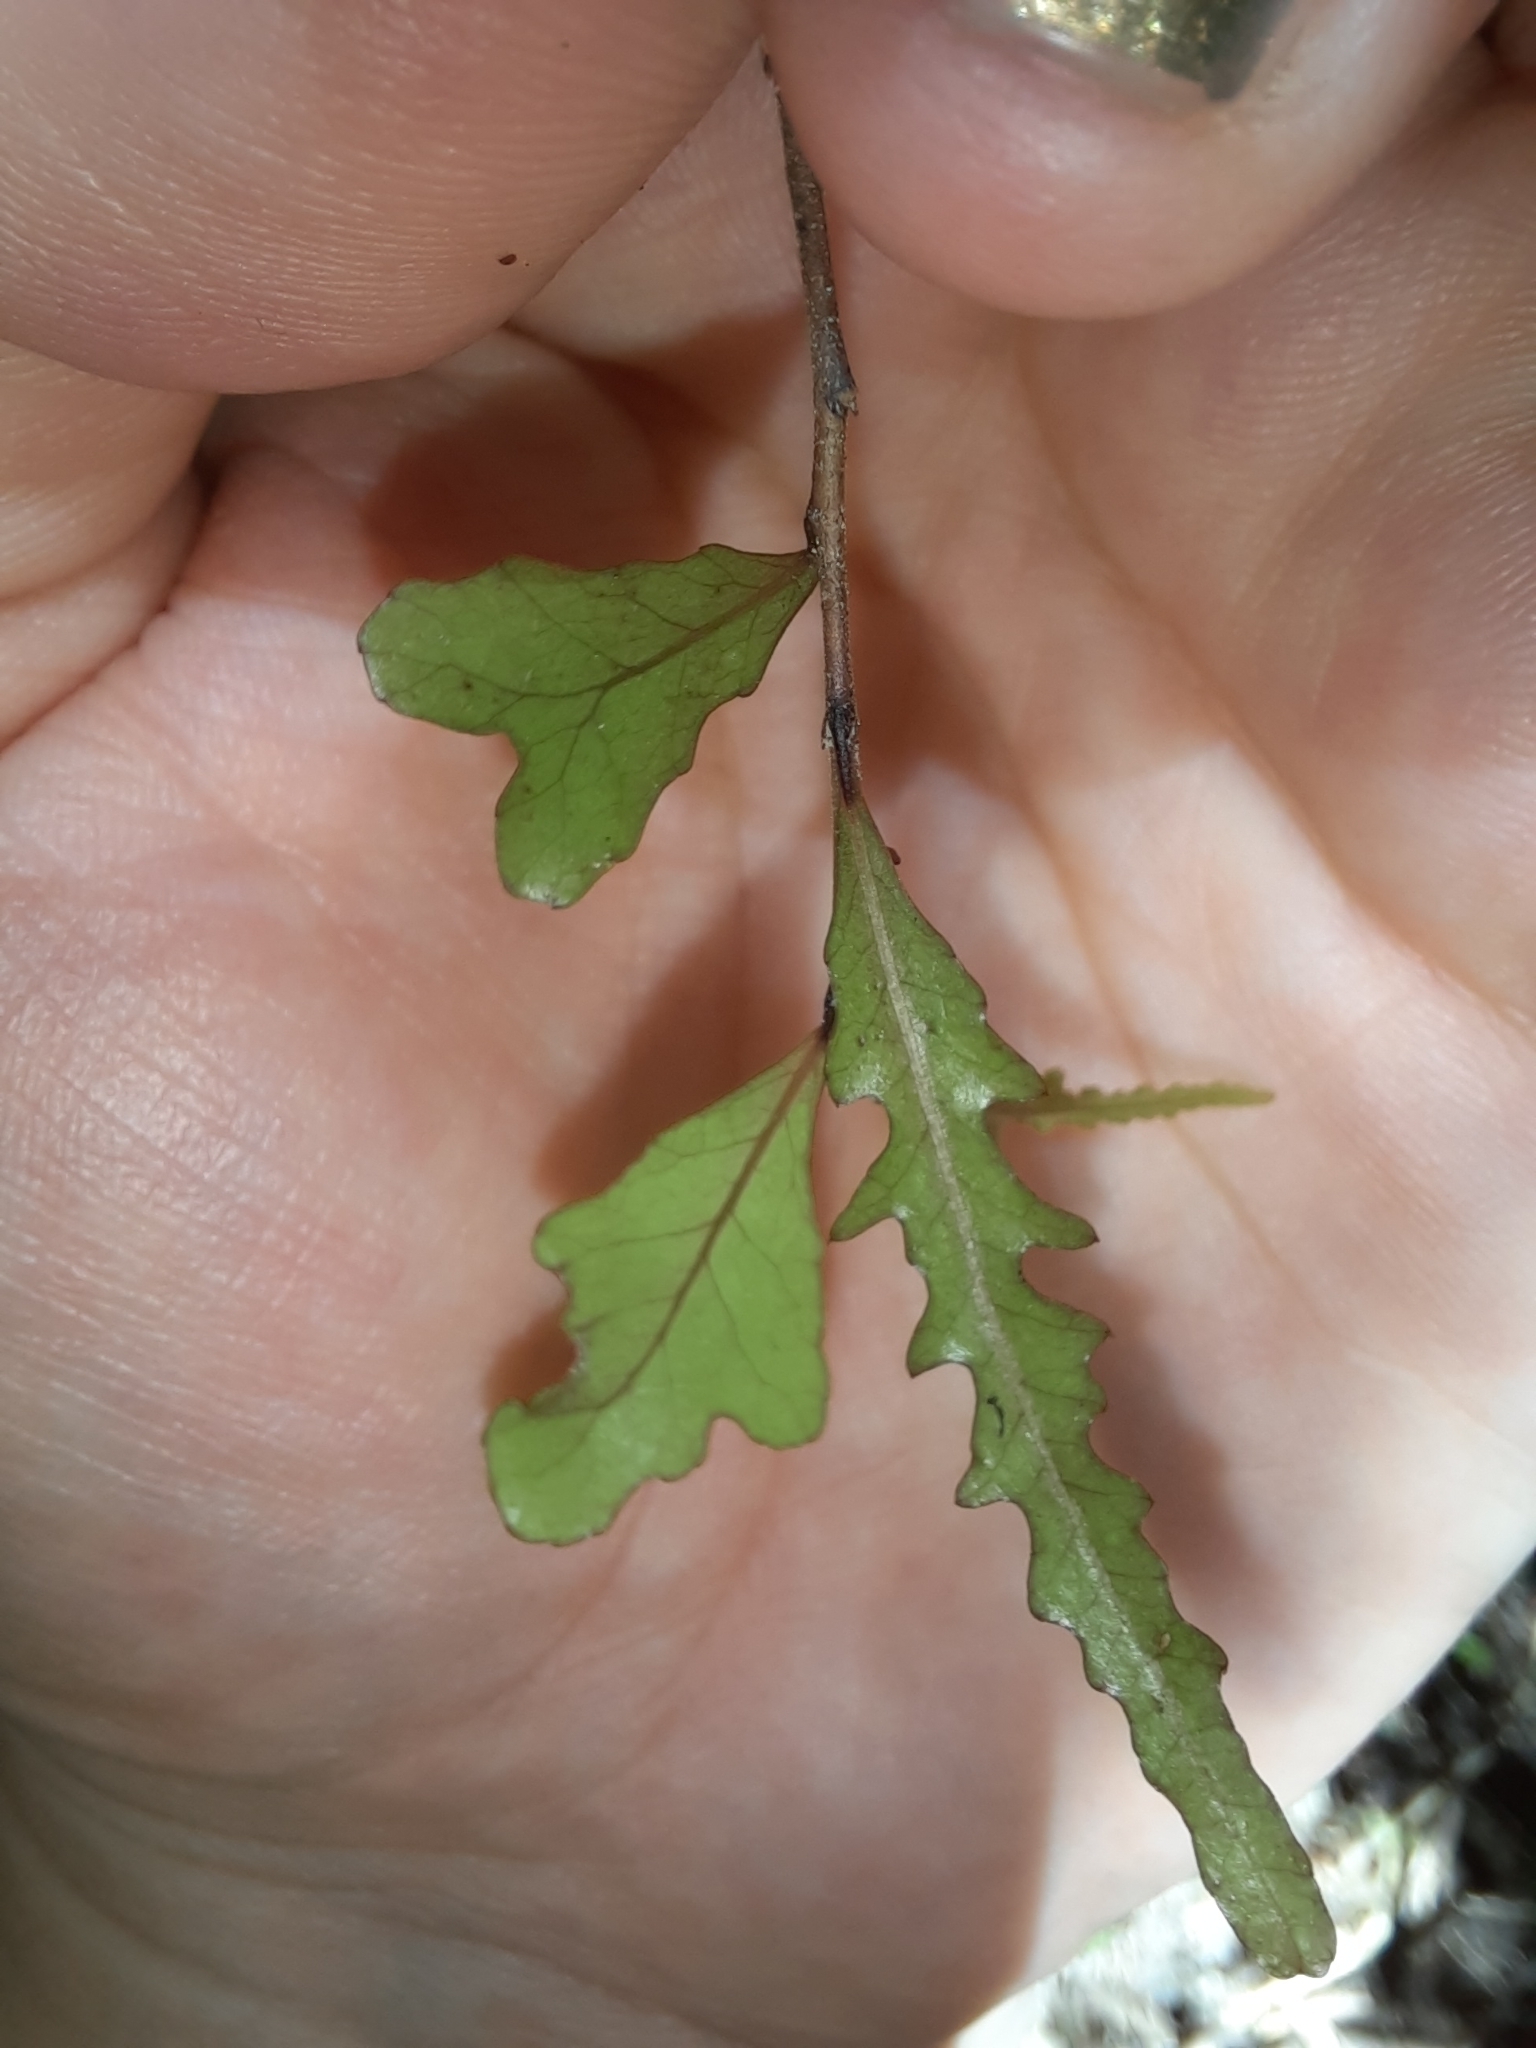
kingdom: Plantae
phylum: Tracheophyta
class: Magnoliopsida
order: Oxalidales
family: Elaeocarpaceae
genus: Elaeocarpus
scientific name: Elaeocarpus hookerianus
